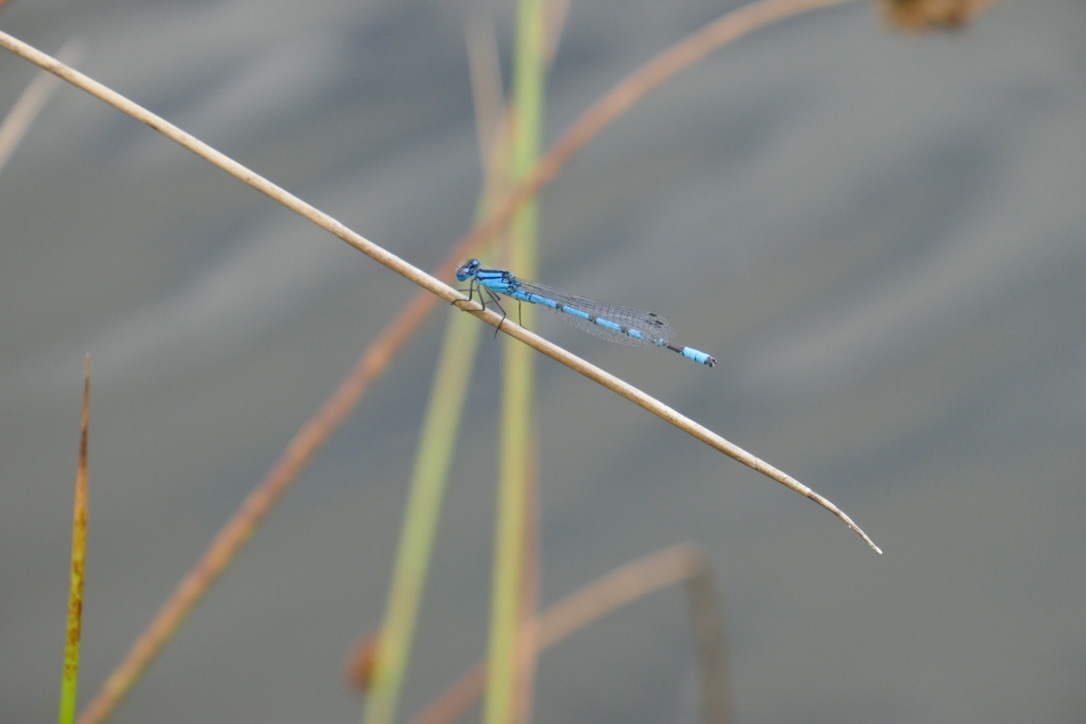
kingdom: Animalia
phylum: Arthropoda
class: Insecta
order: Odonata
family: Coenagrionidae
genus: Enallagma
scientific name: Enallagma cyathigerum
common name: Common blue damselfly
